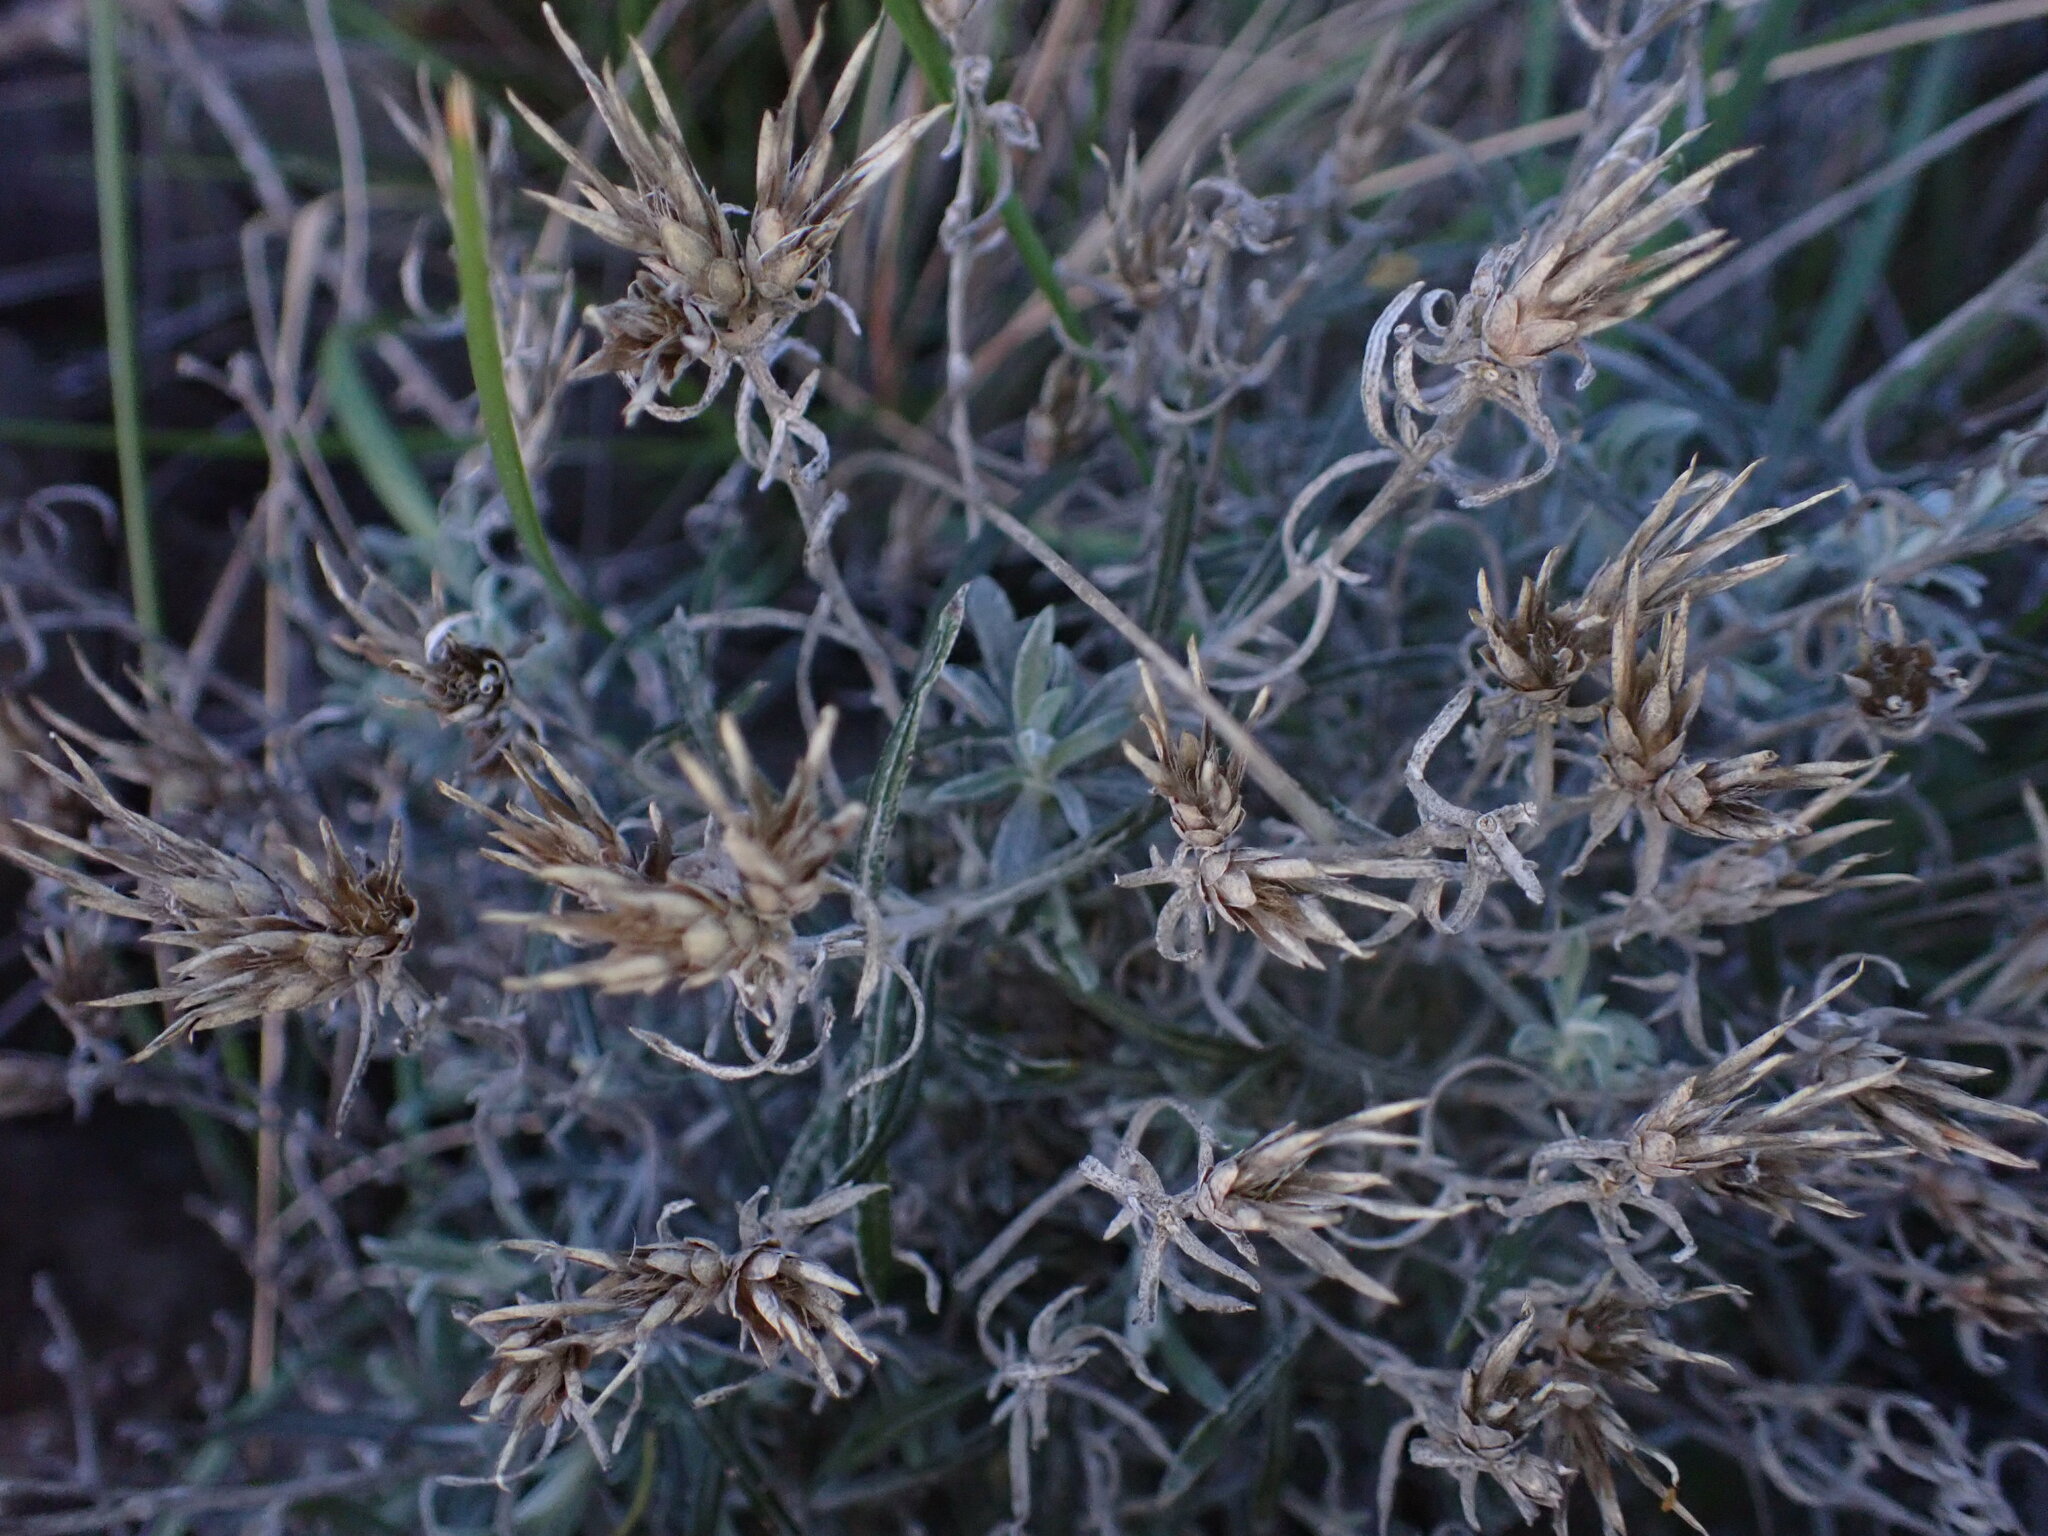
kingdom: Plantae
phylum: Tracheophyta
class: Magnoliopsida
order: Asterales
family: Asteraceae
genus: Staehelina
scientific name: Staehelina dubia
